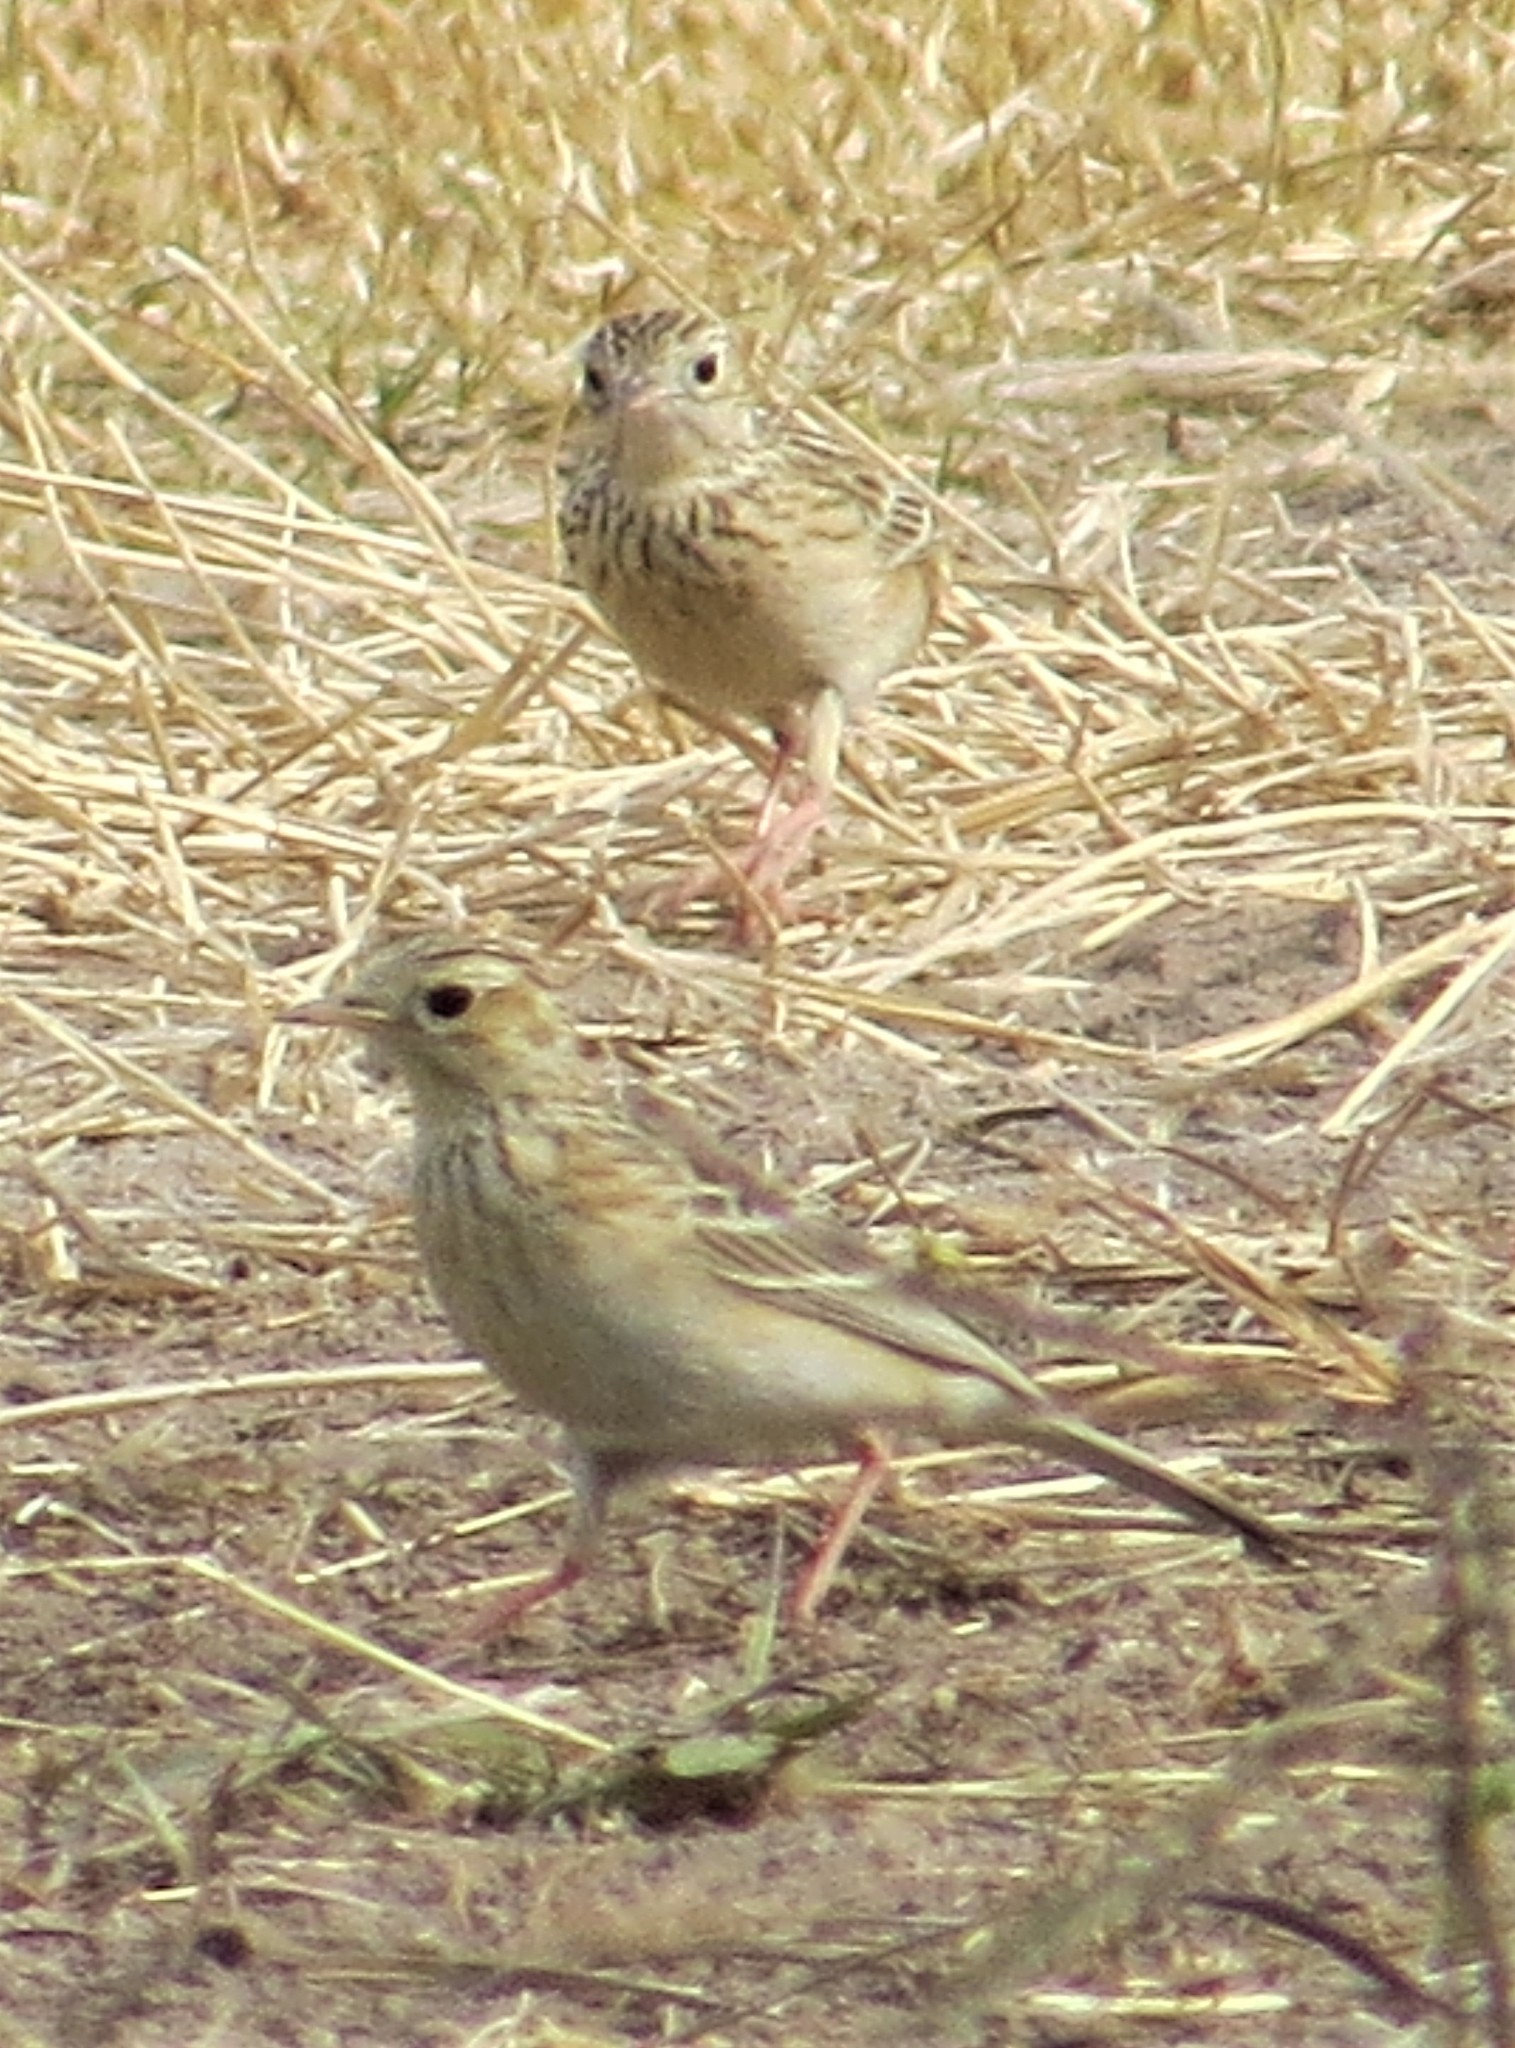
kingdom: Animalia
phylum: Chordata
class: Aves
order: Passeriformes
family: Motacillidae
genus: Anthus
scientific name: Anthus spragueii
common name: Sprague's pipit
